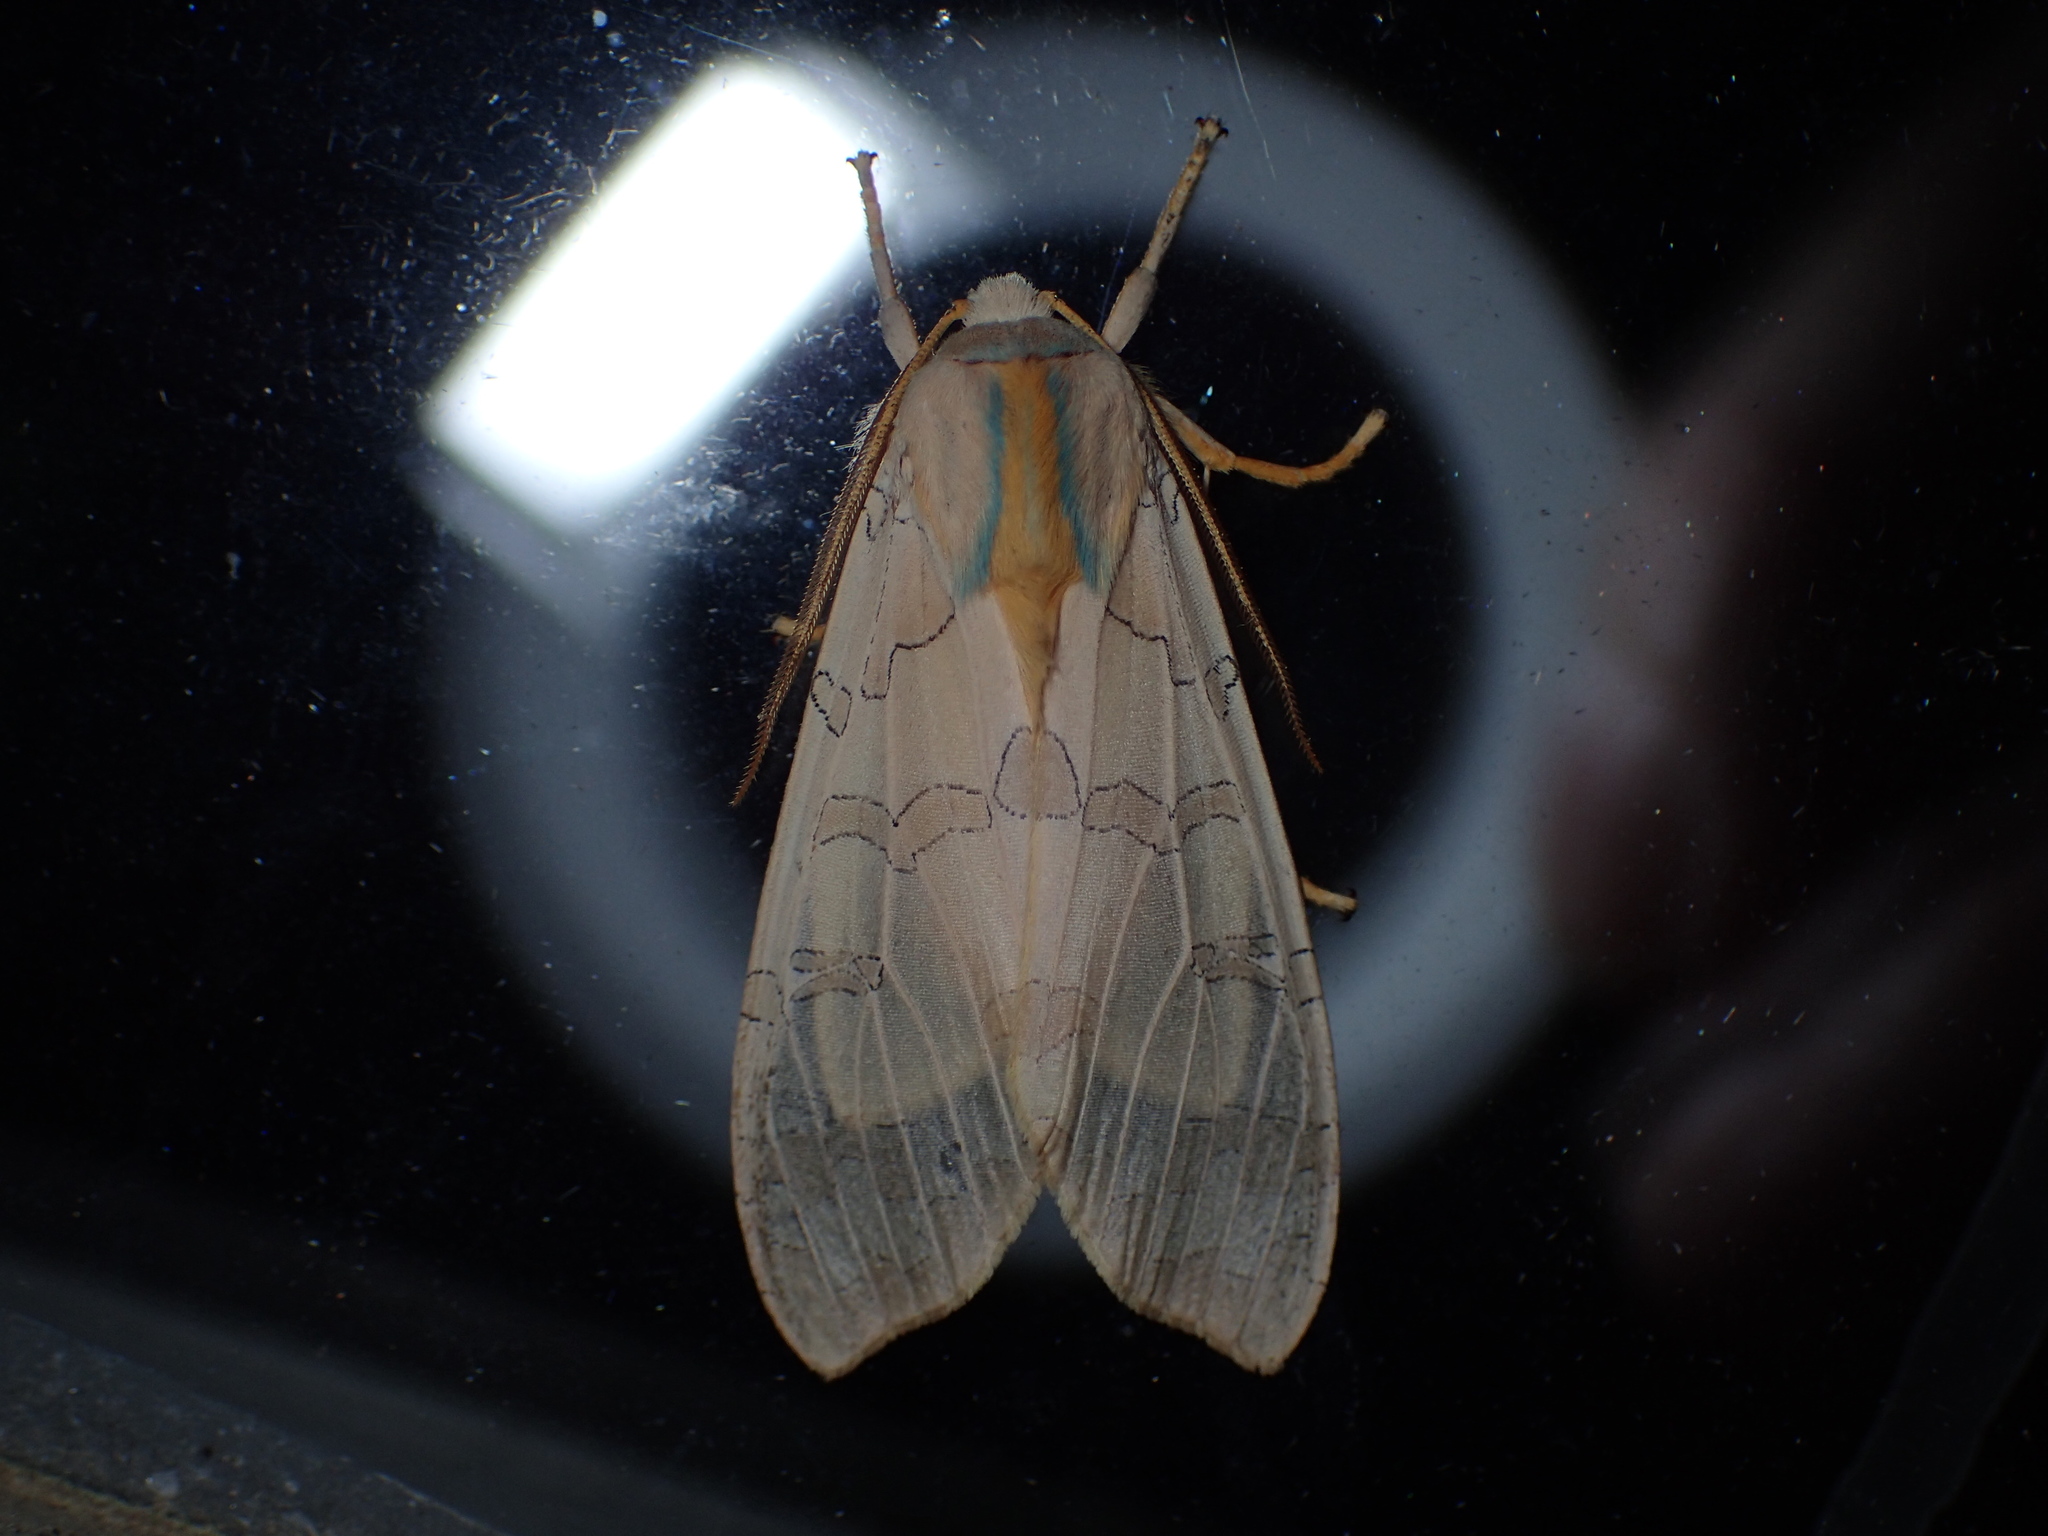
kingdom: Animalia
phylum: Arthropoda
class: Insecta
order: Lepidoptera
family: Erebidae
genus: Halysidota
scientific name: Halysidota
